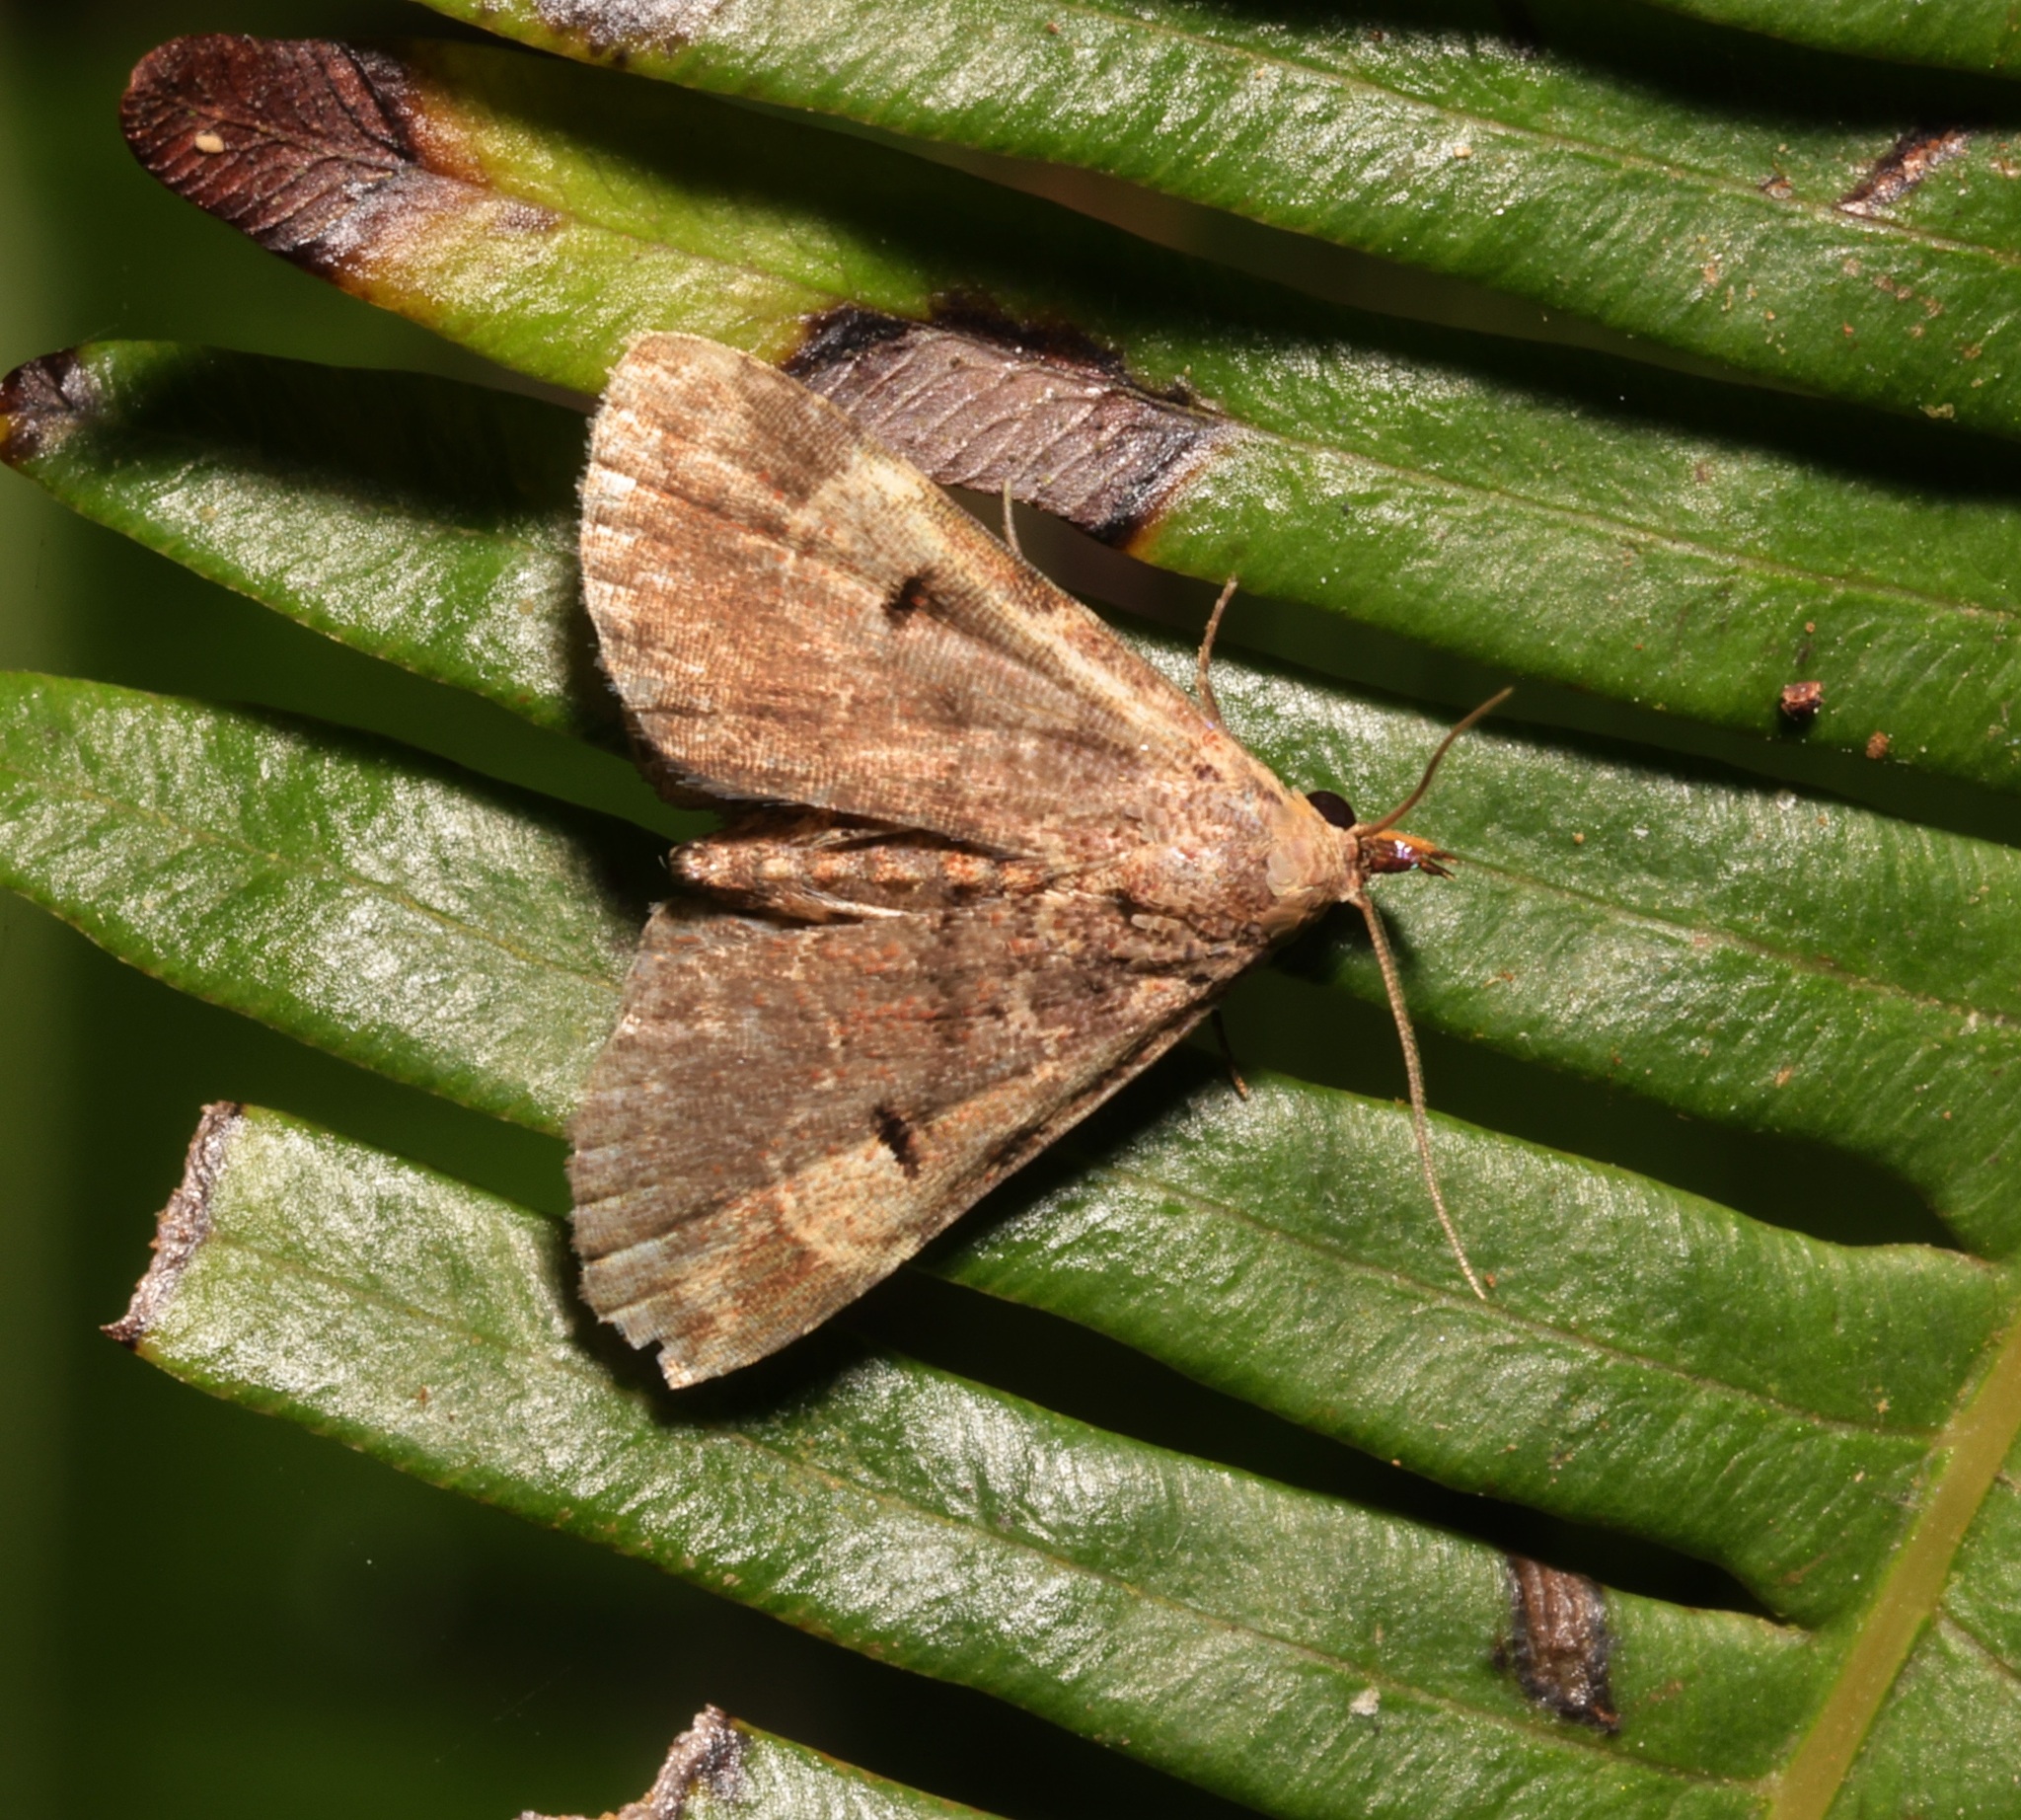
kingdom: Animalia
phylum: Arthropoda
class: Insecta
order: Lepidoptera
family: Erebidae
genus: Maguda
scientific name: Maguda suffusa
